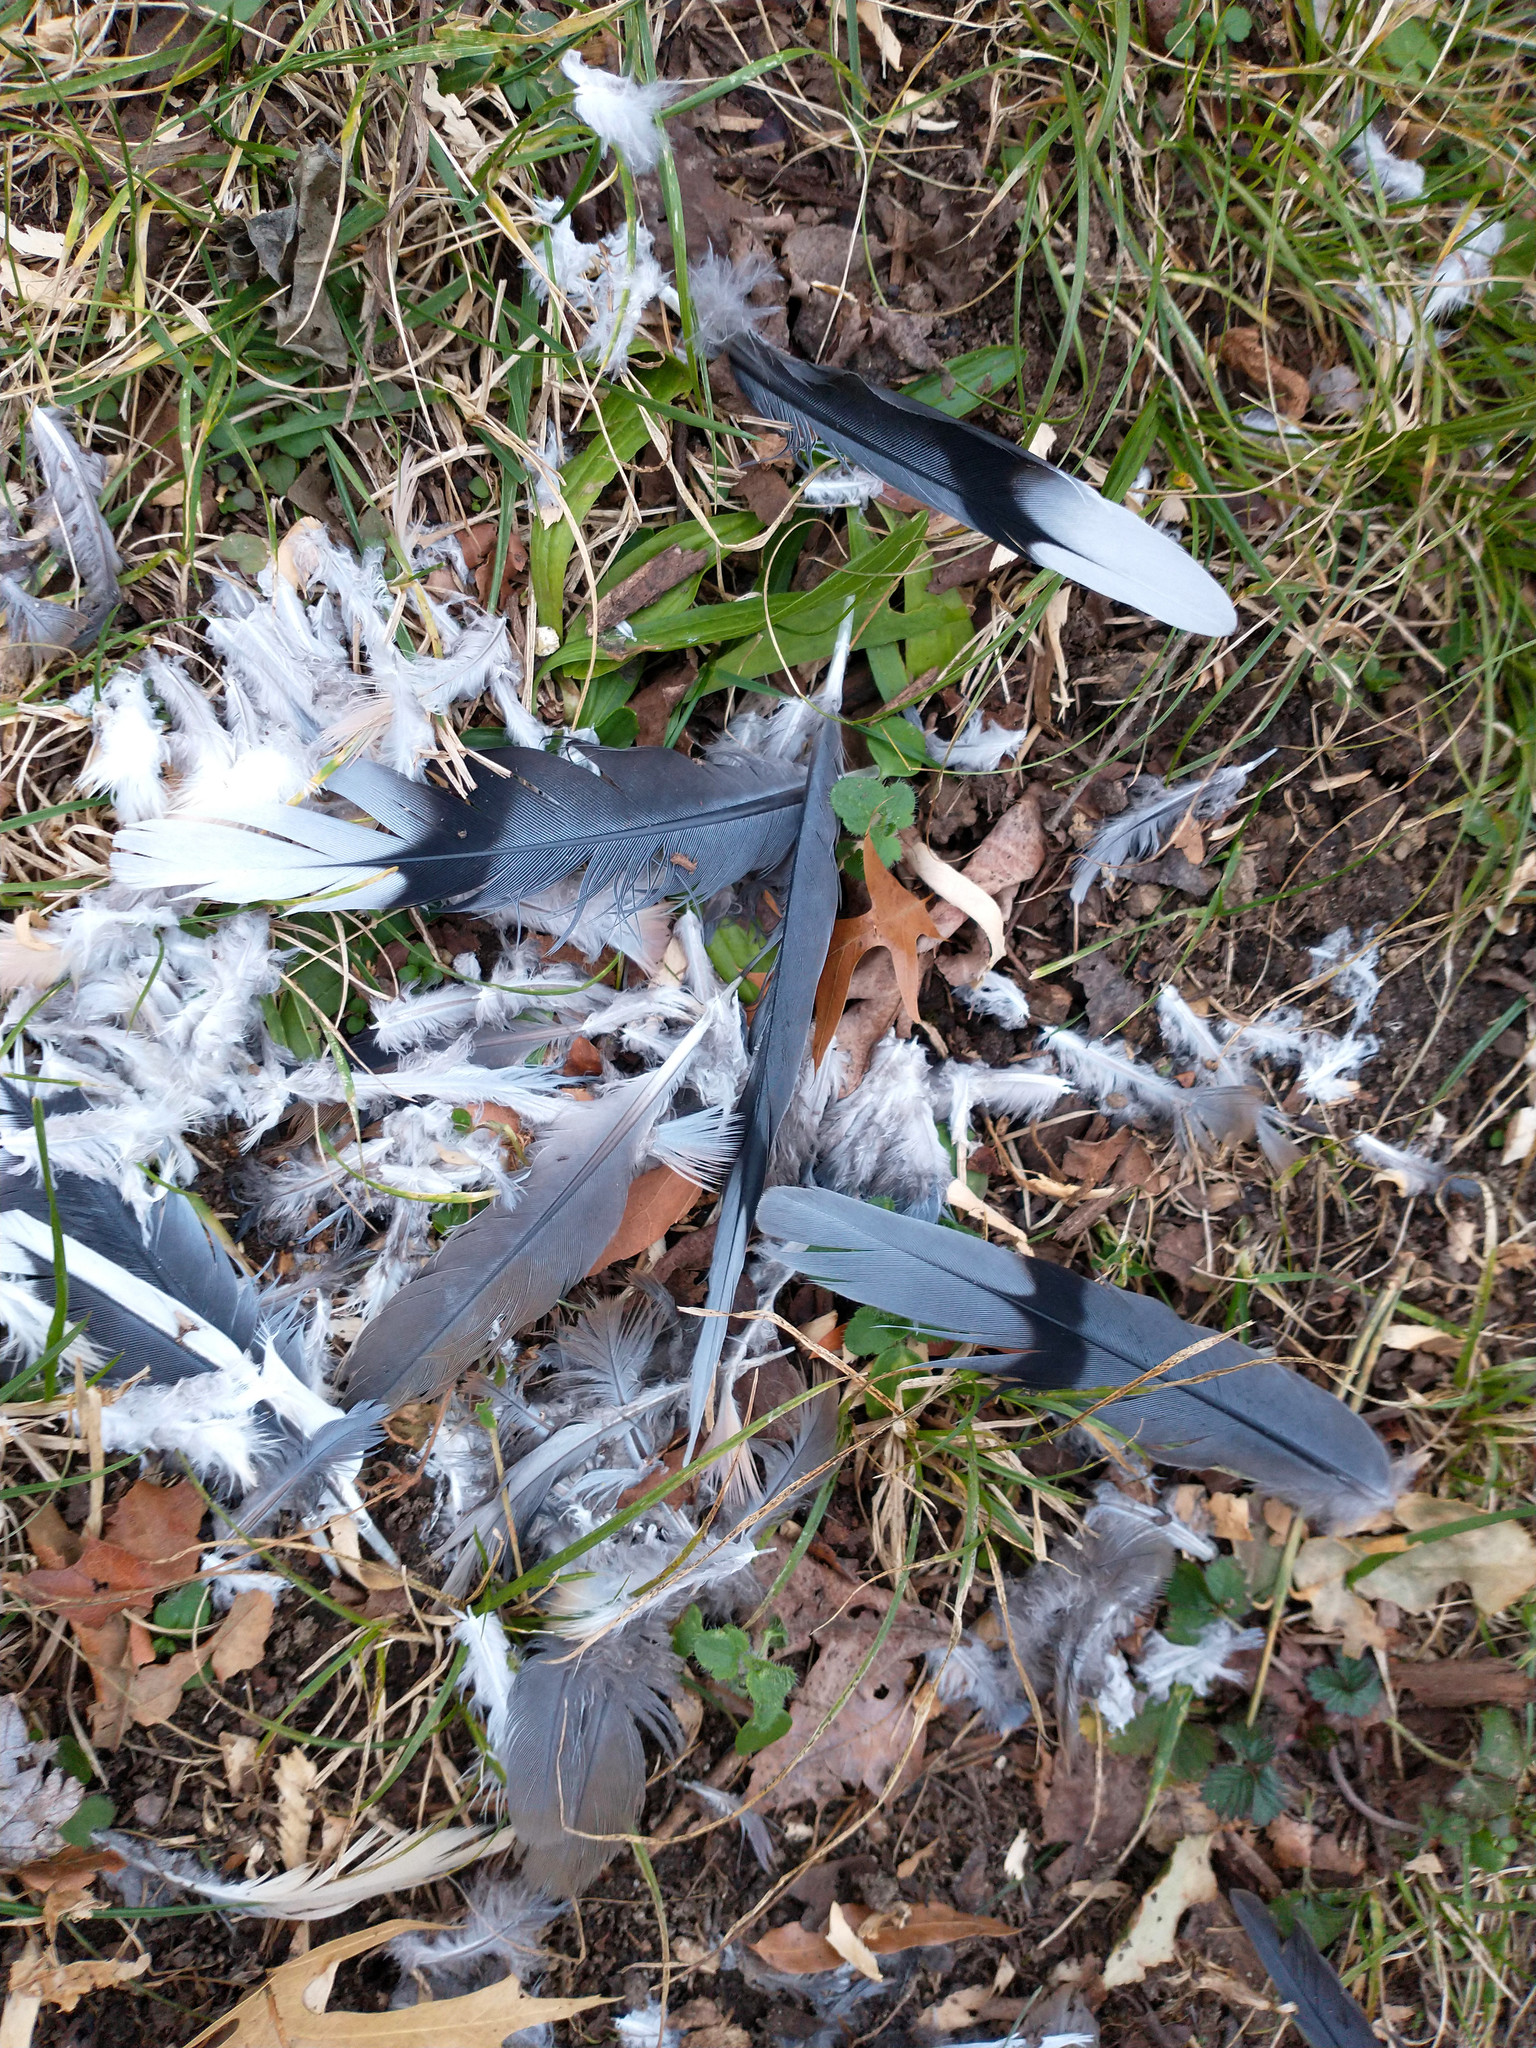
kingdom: Animalia
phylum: Chordata
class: Aves
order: Columbiformes
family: Columbidae
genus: Zenaida
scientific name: Zenaida macroura
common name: Mourning dove
